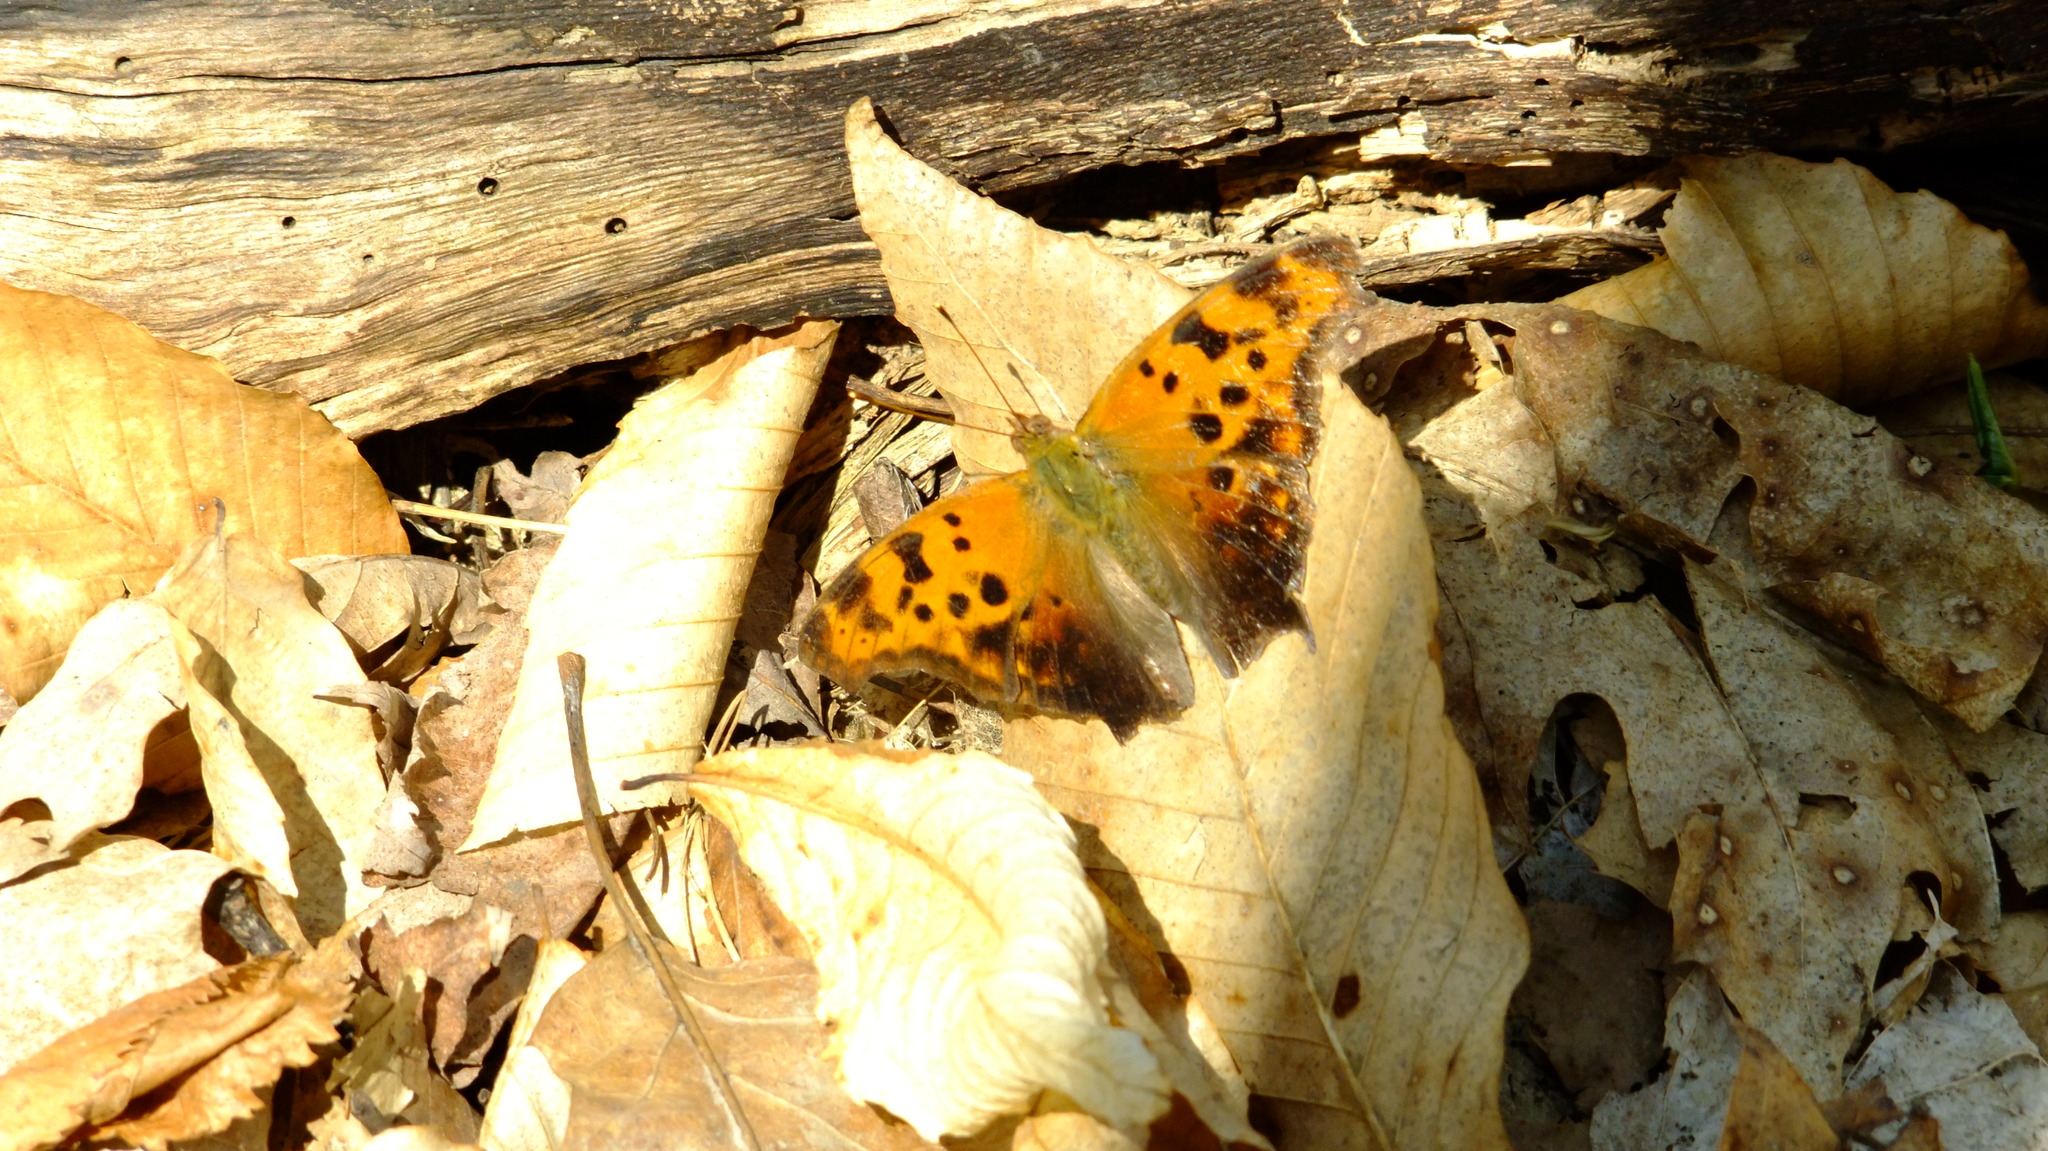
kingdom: Animalia
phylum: Arthropoda
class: Insecta
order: Lepidoptera
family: Nymphalidae
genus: Polygonia
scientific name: Polygonia comma
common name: Eastern comma
